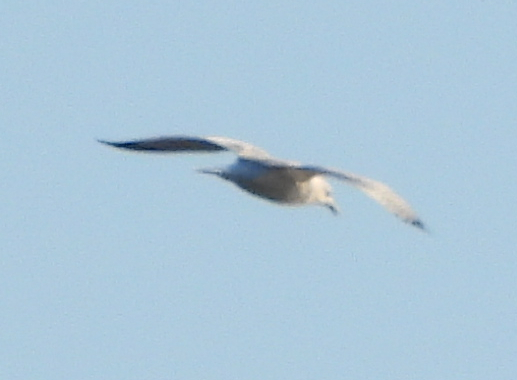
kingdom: Animalia
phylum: Chordata
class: Aves
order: Charadriiformes
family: Laridae
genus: Larus
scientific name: Larus delawarensis
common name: Ring-billed gull
